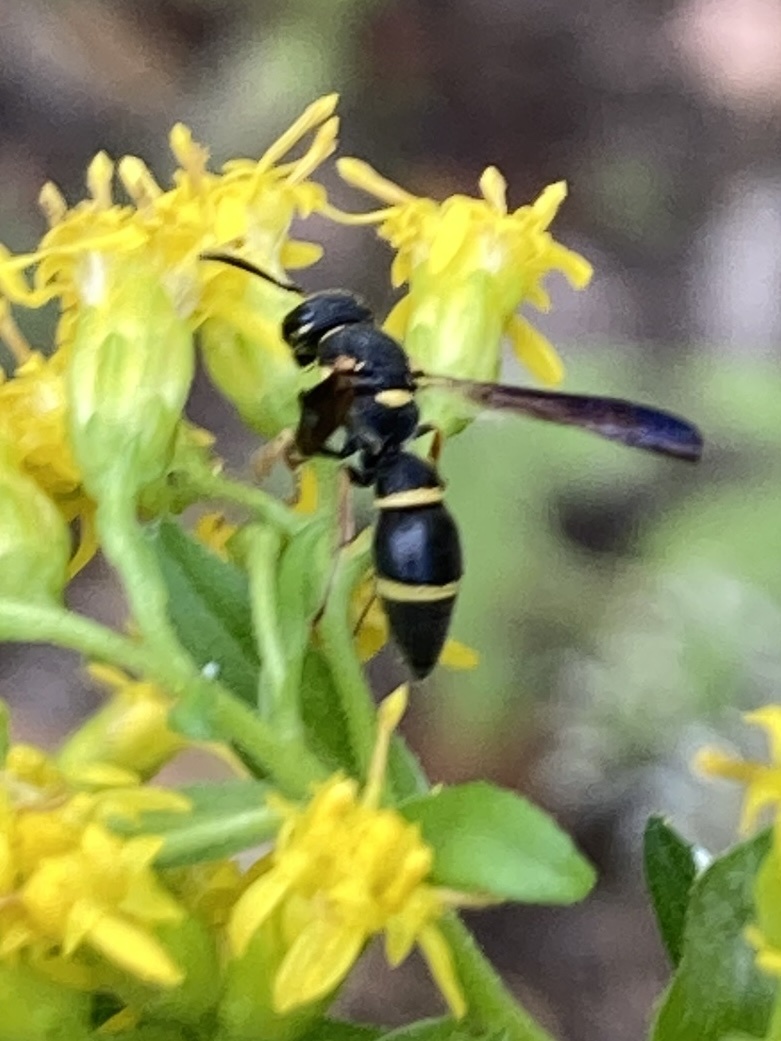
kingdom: Animalia
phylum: Arthropoda
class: Insecta
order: Hymenoptera
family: Eumenidae
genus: Parancistrocerus
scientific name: Parancistrocerus perennis
